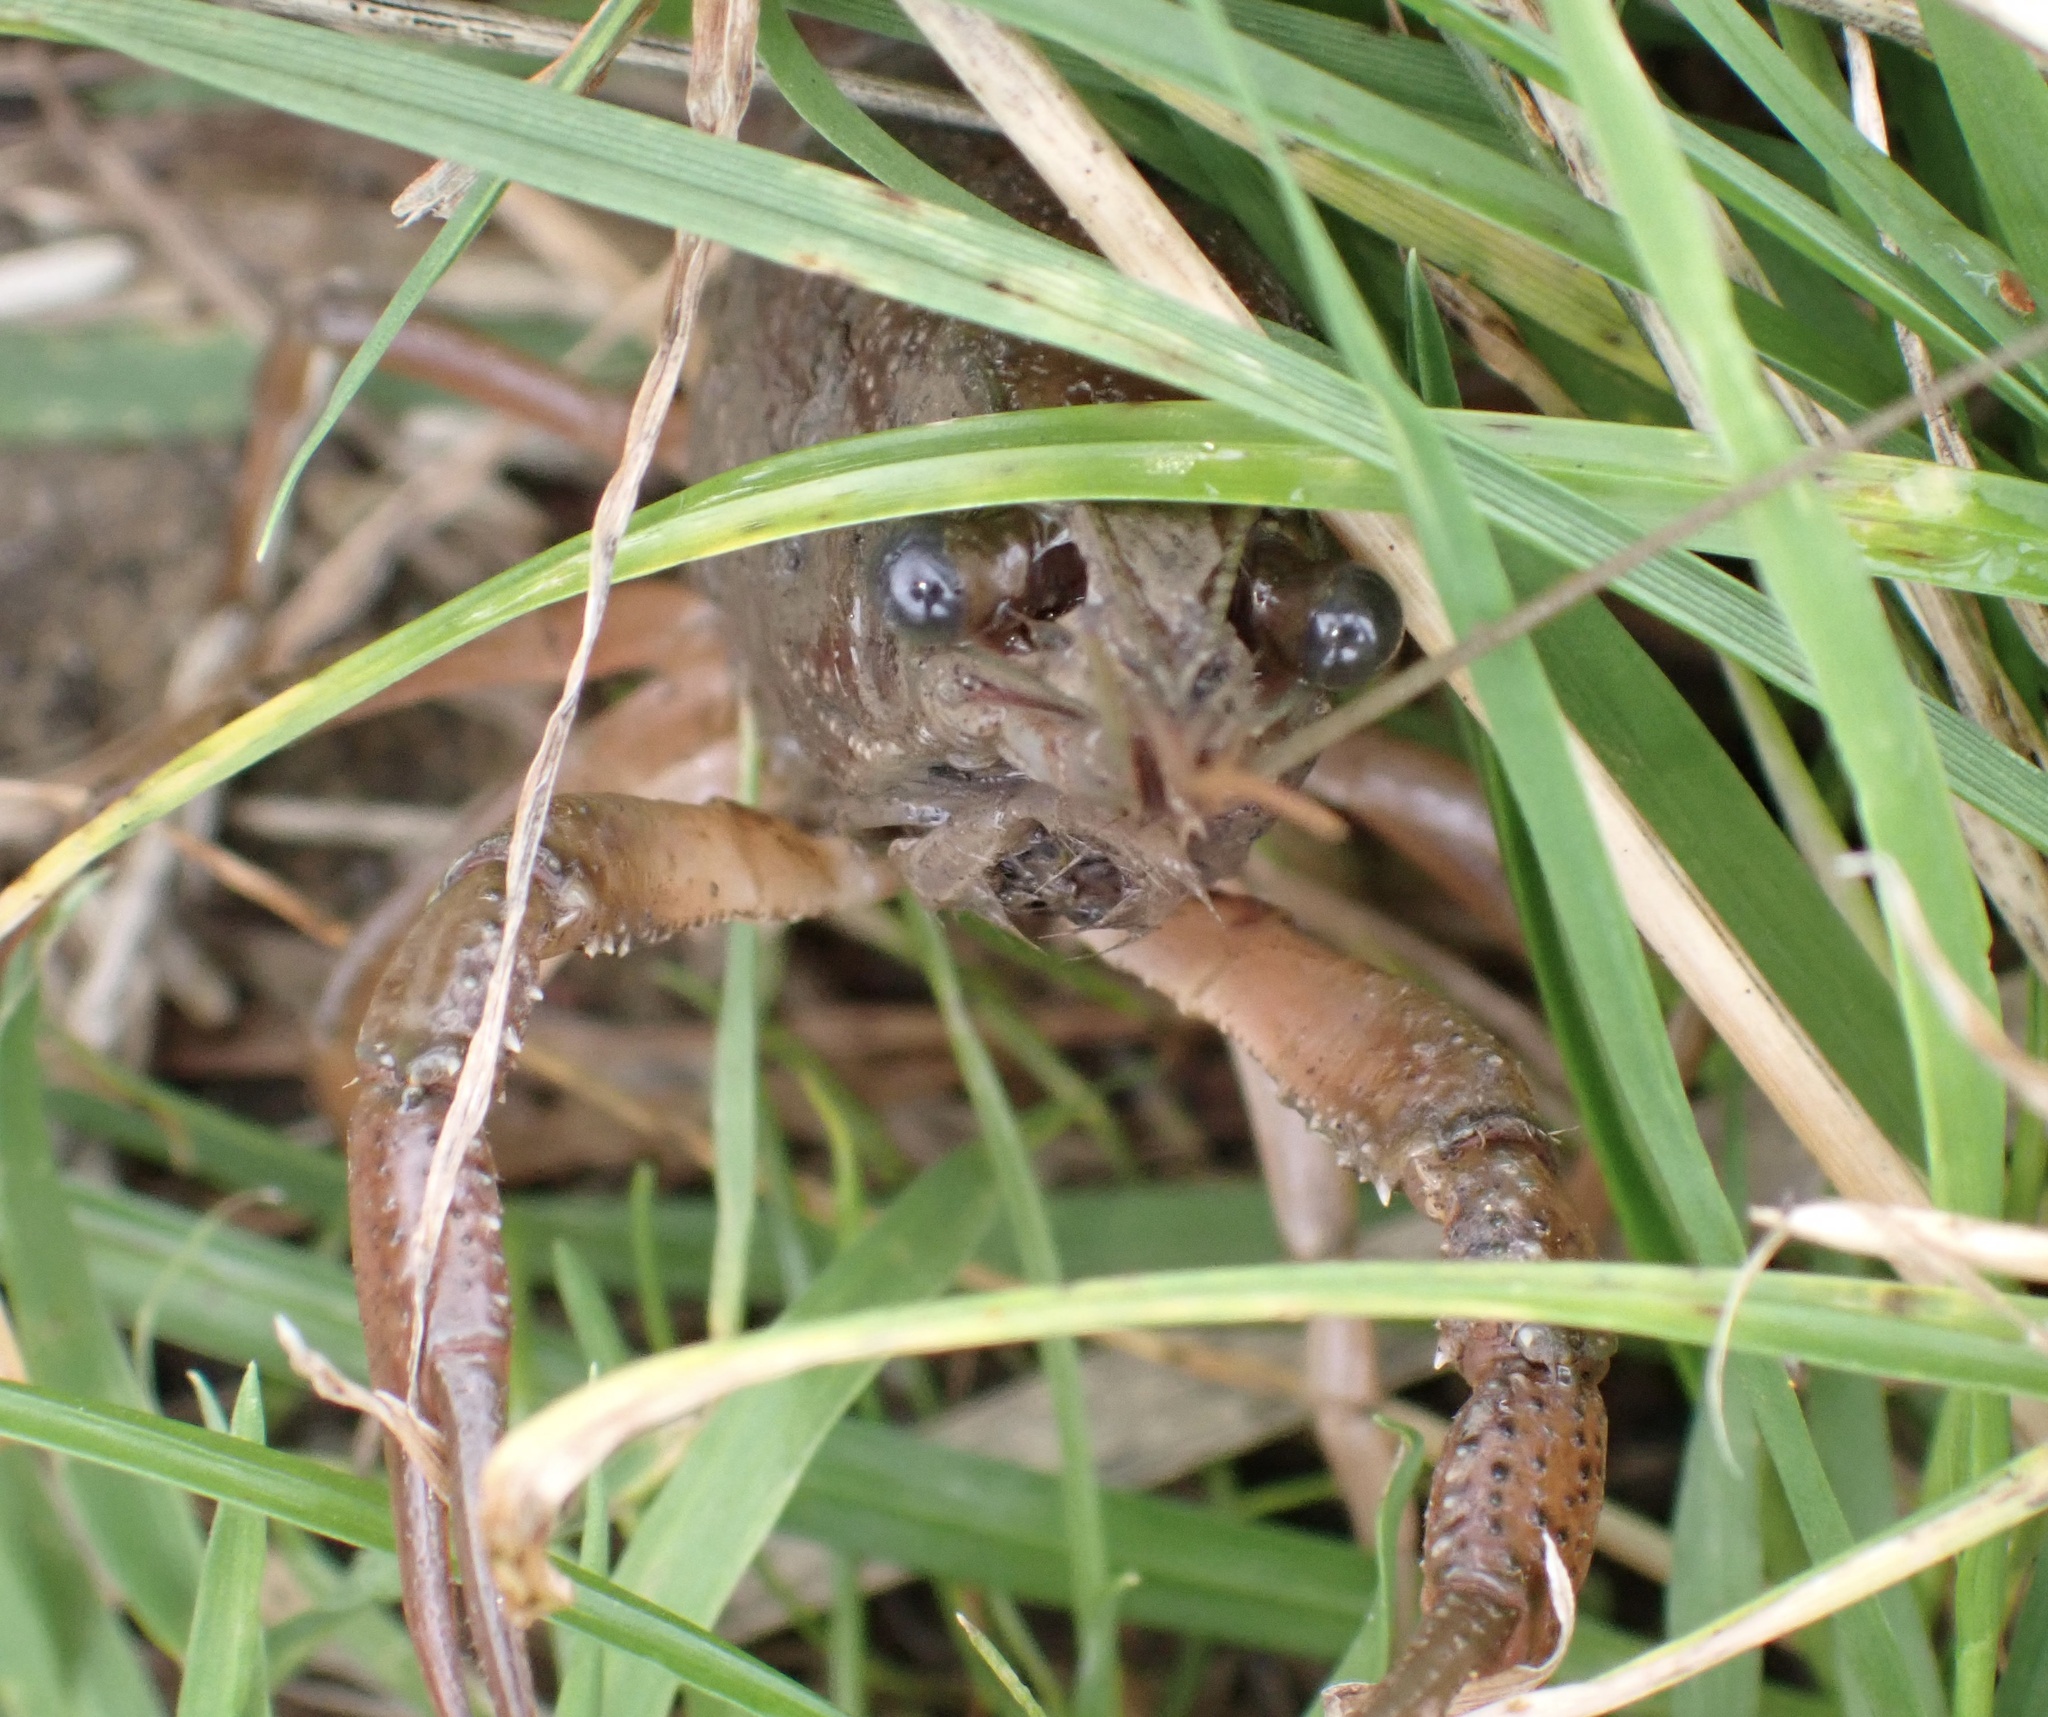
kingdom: Animalia
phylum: Arthropoda
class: Malacostraca
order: Decapoda
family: Cambaridae
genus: Procambarus
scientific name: Procambarus clarkii
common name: Red swamp crayfish
